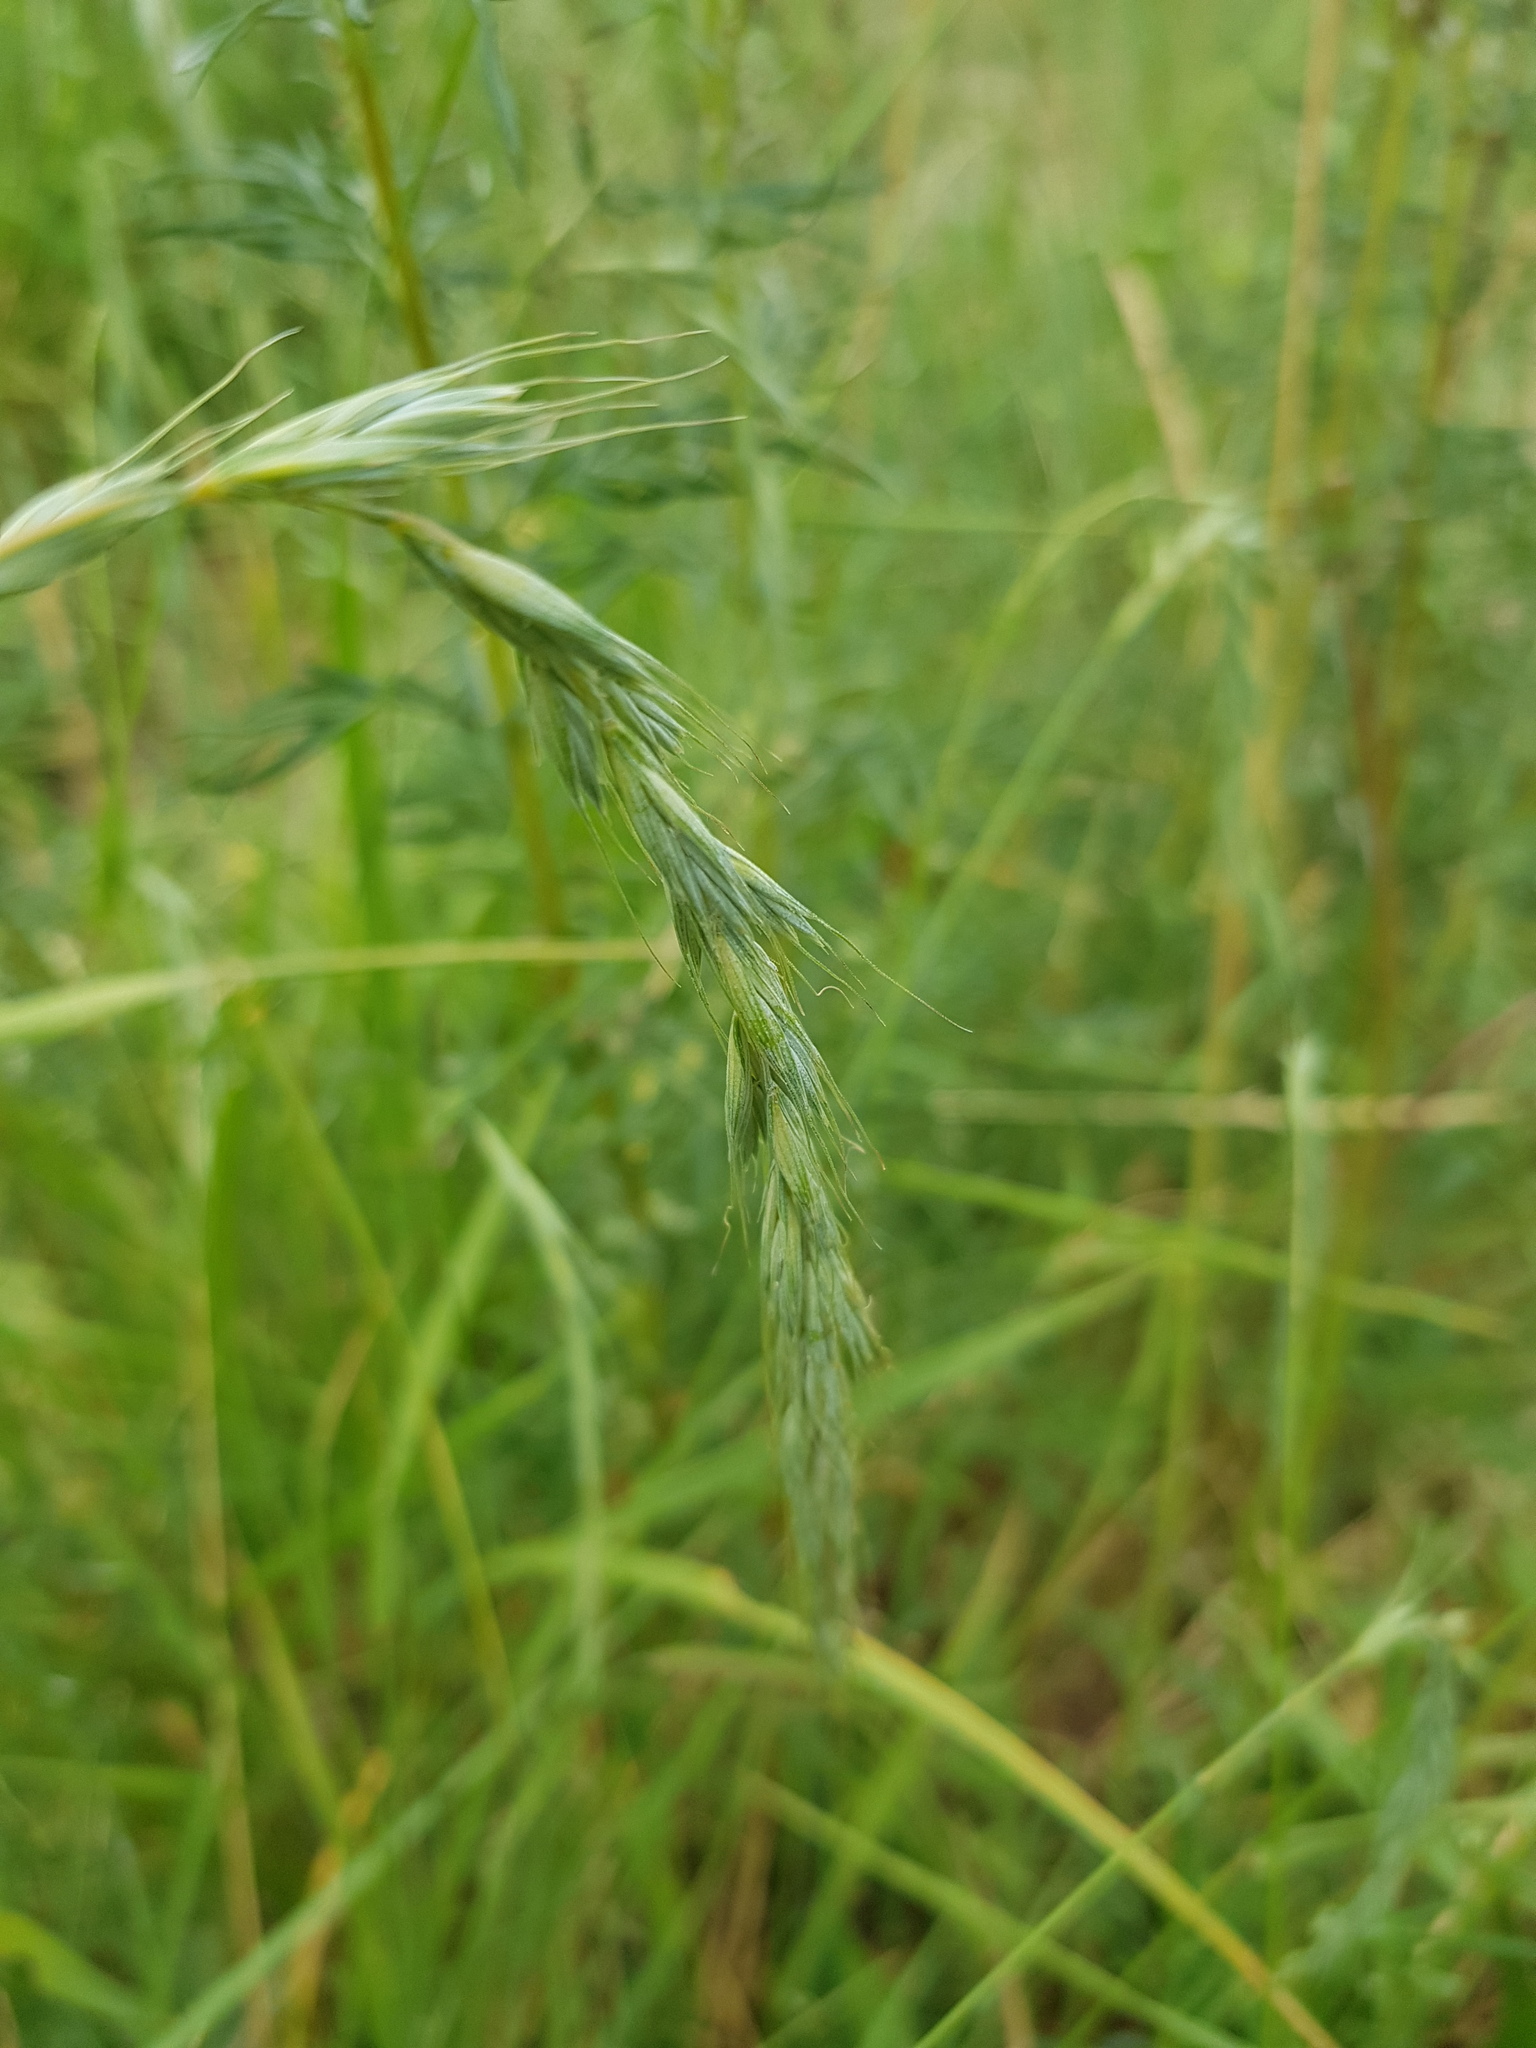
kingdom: Plantae
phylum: Tracheophyta
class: Liliopsida
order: Poales
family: Poaceae
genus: Elymus
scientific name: Elymus sibiricus
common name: Siberian wildrye
